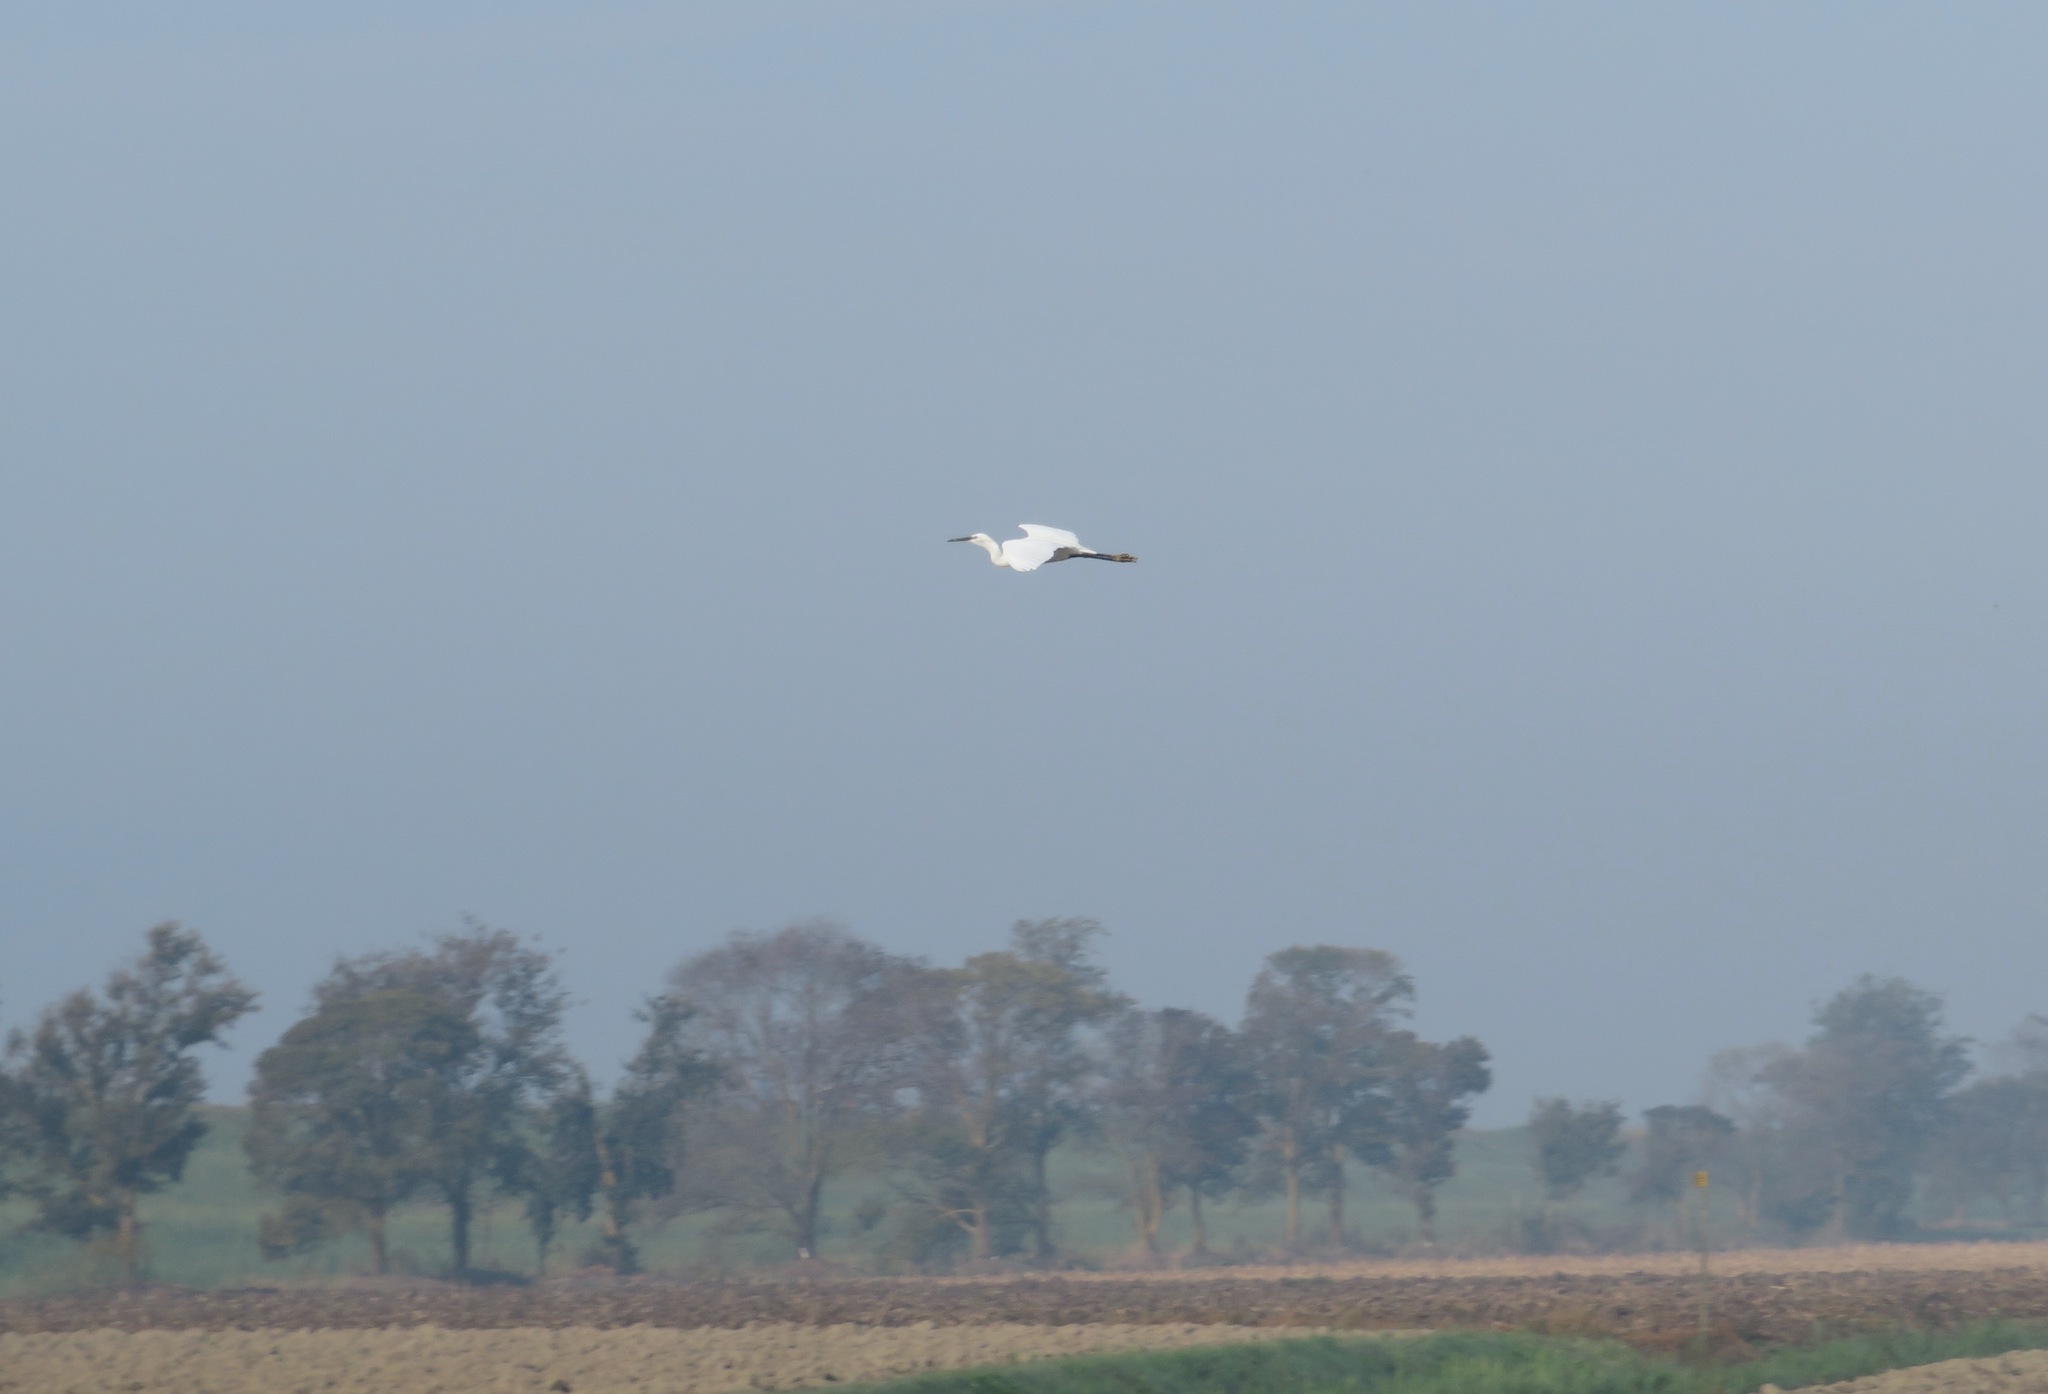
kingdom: Animalia
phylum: Chordata
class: Aves
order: Pelecaniformes
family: Ardeidae
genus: Egretta
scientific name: Egretta garzetta
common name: Little egret
